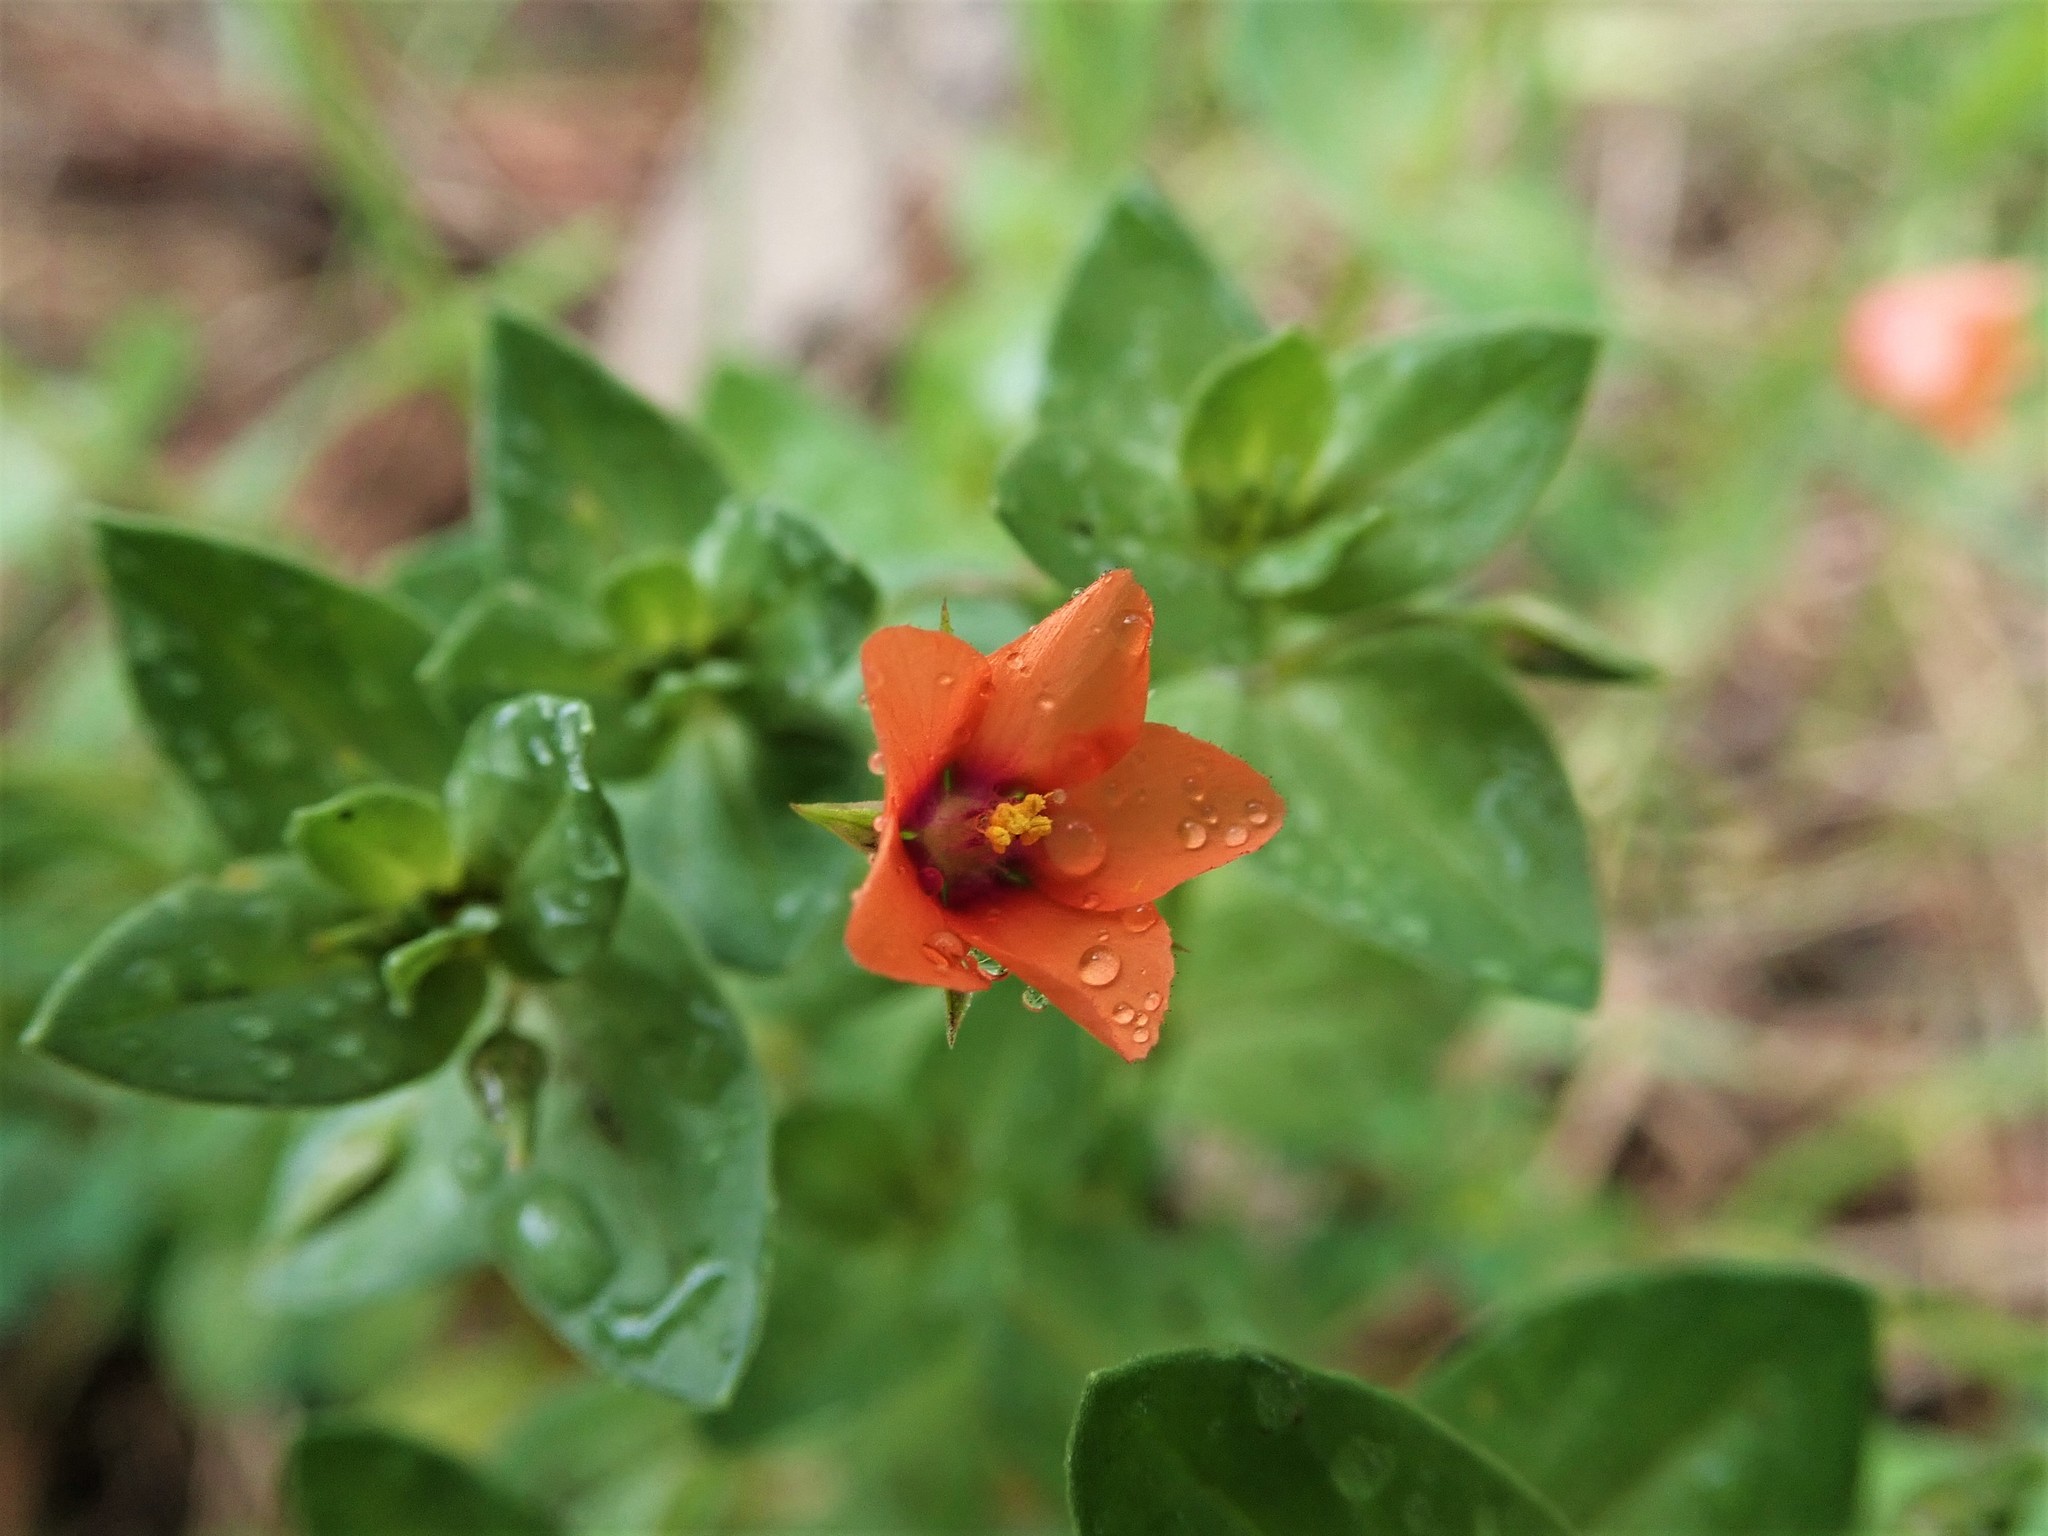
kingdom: Plantae
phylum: Tracheophyta
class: Magnoliopsida
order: Ericales
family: Primulaceae
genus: Lysimachia
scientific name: Lysimachia arvensis
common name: Scarlet pimpernel
